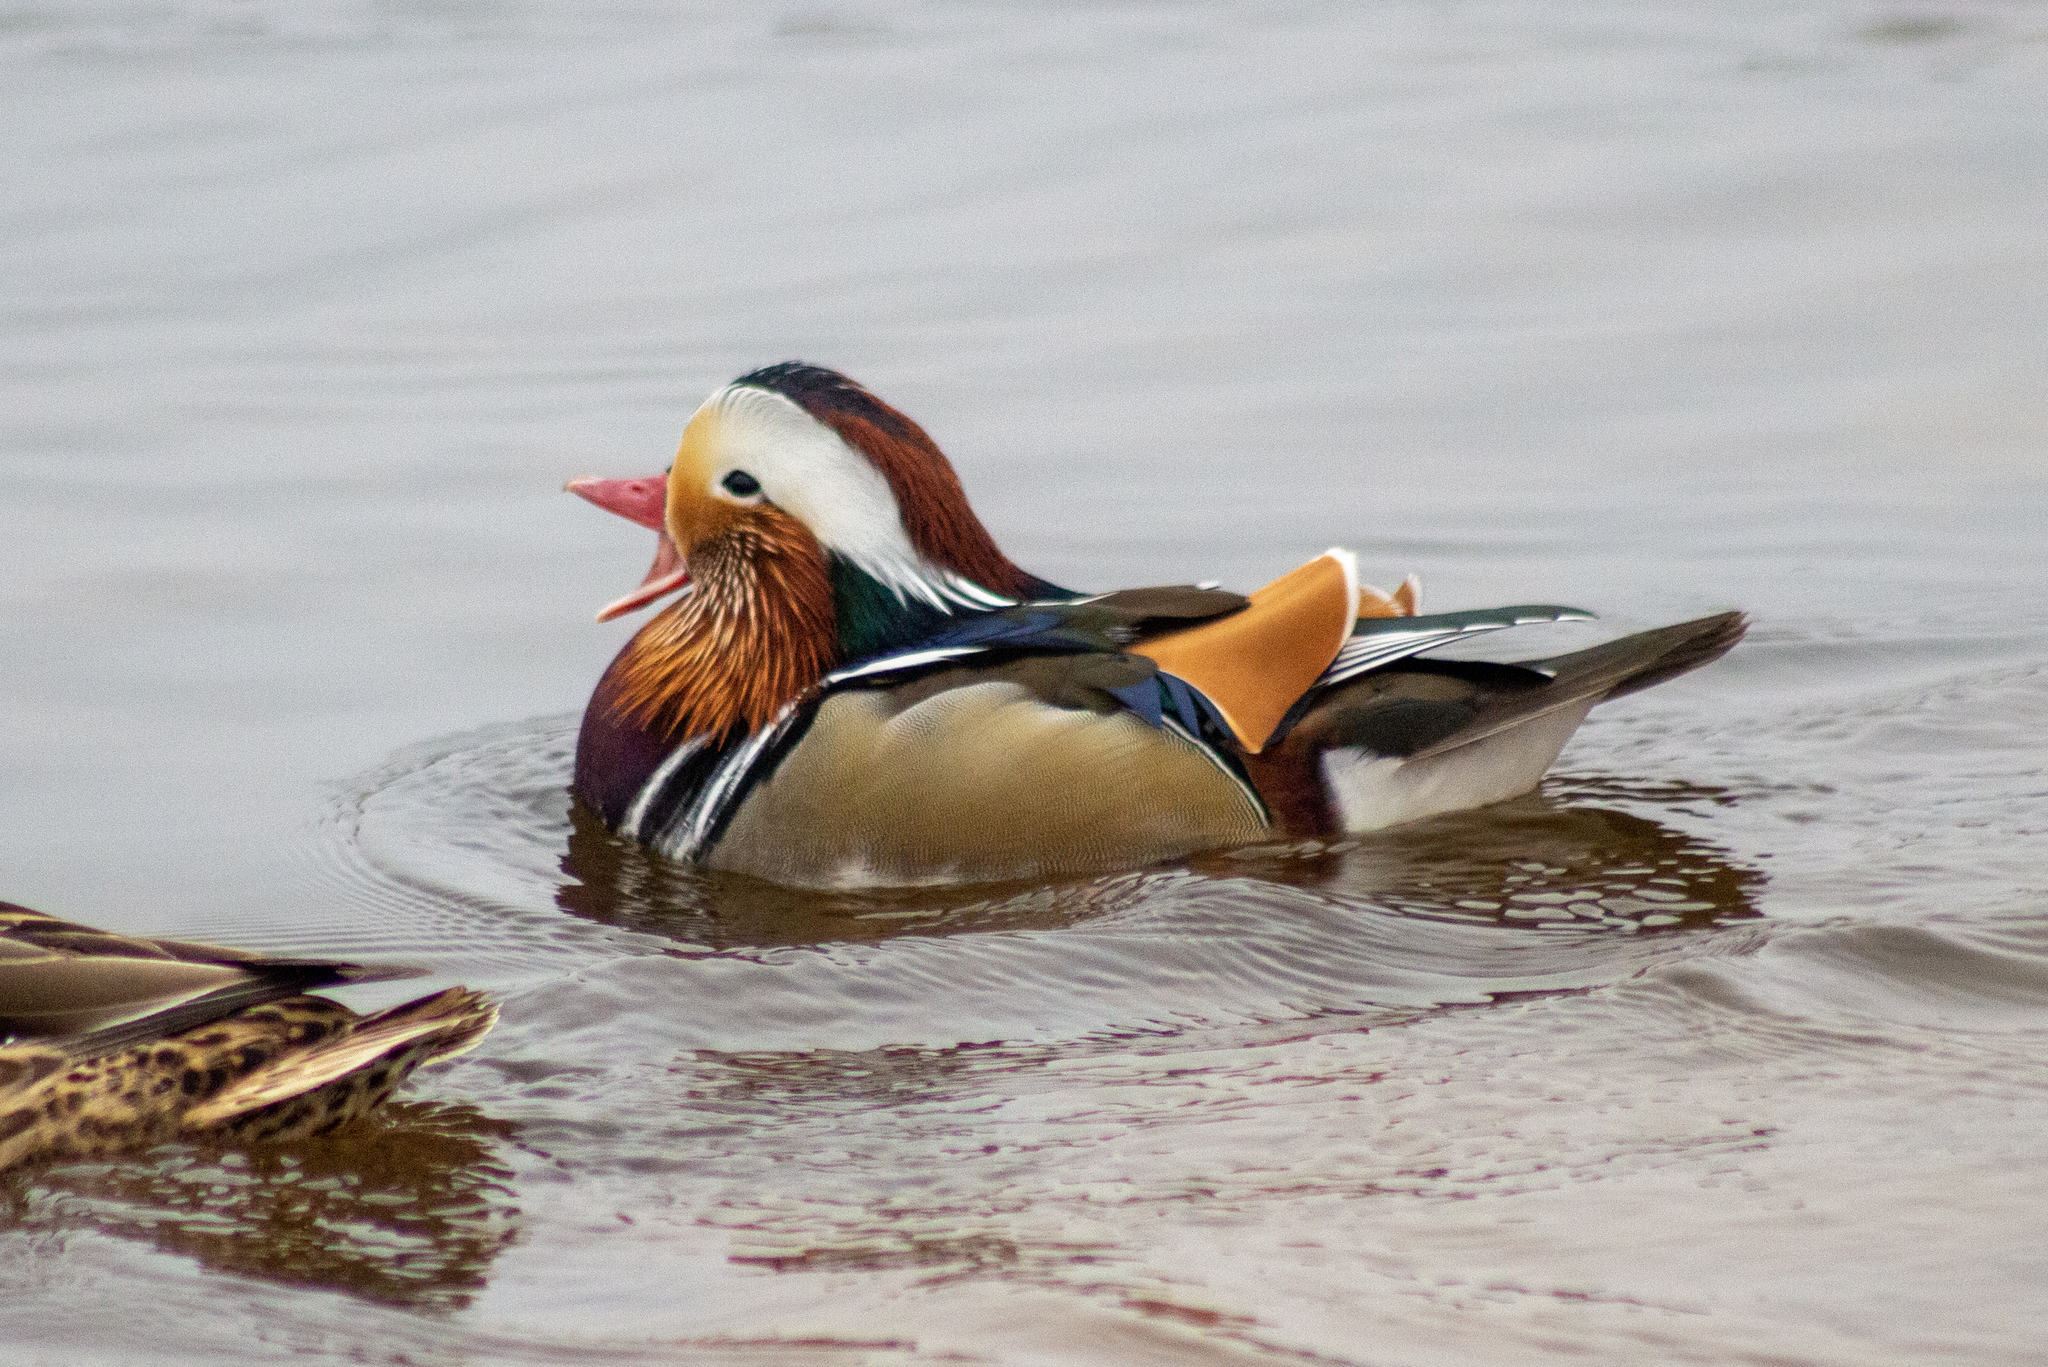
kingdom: Animalia
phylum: Chordata
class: Aves
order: Anseriformes
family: Anatidae
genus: Aix
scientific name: Aix galericulata
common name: Mandarin duck
